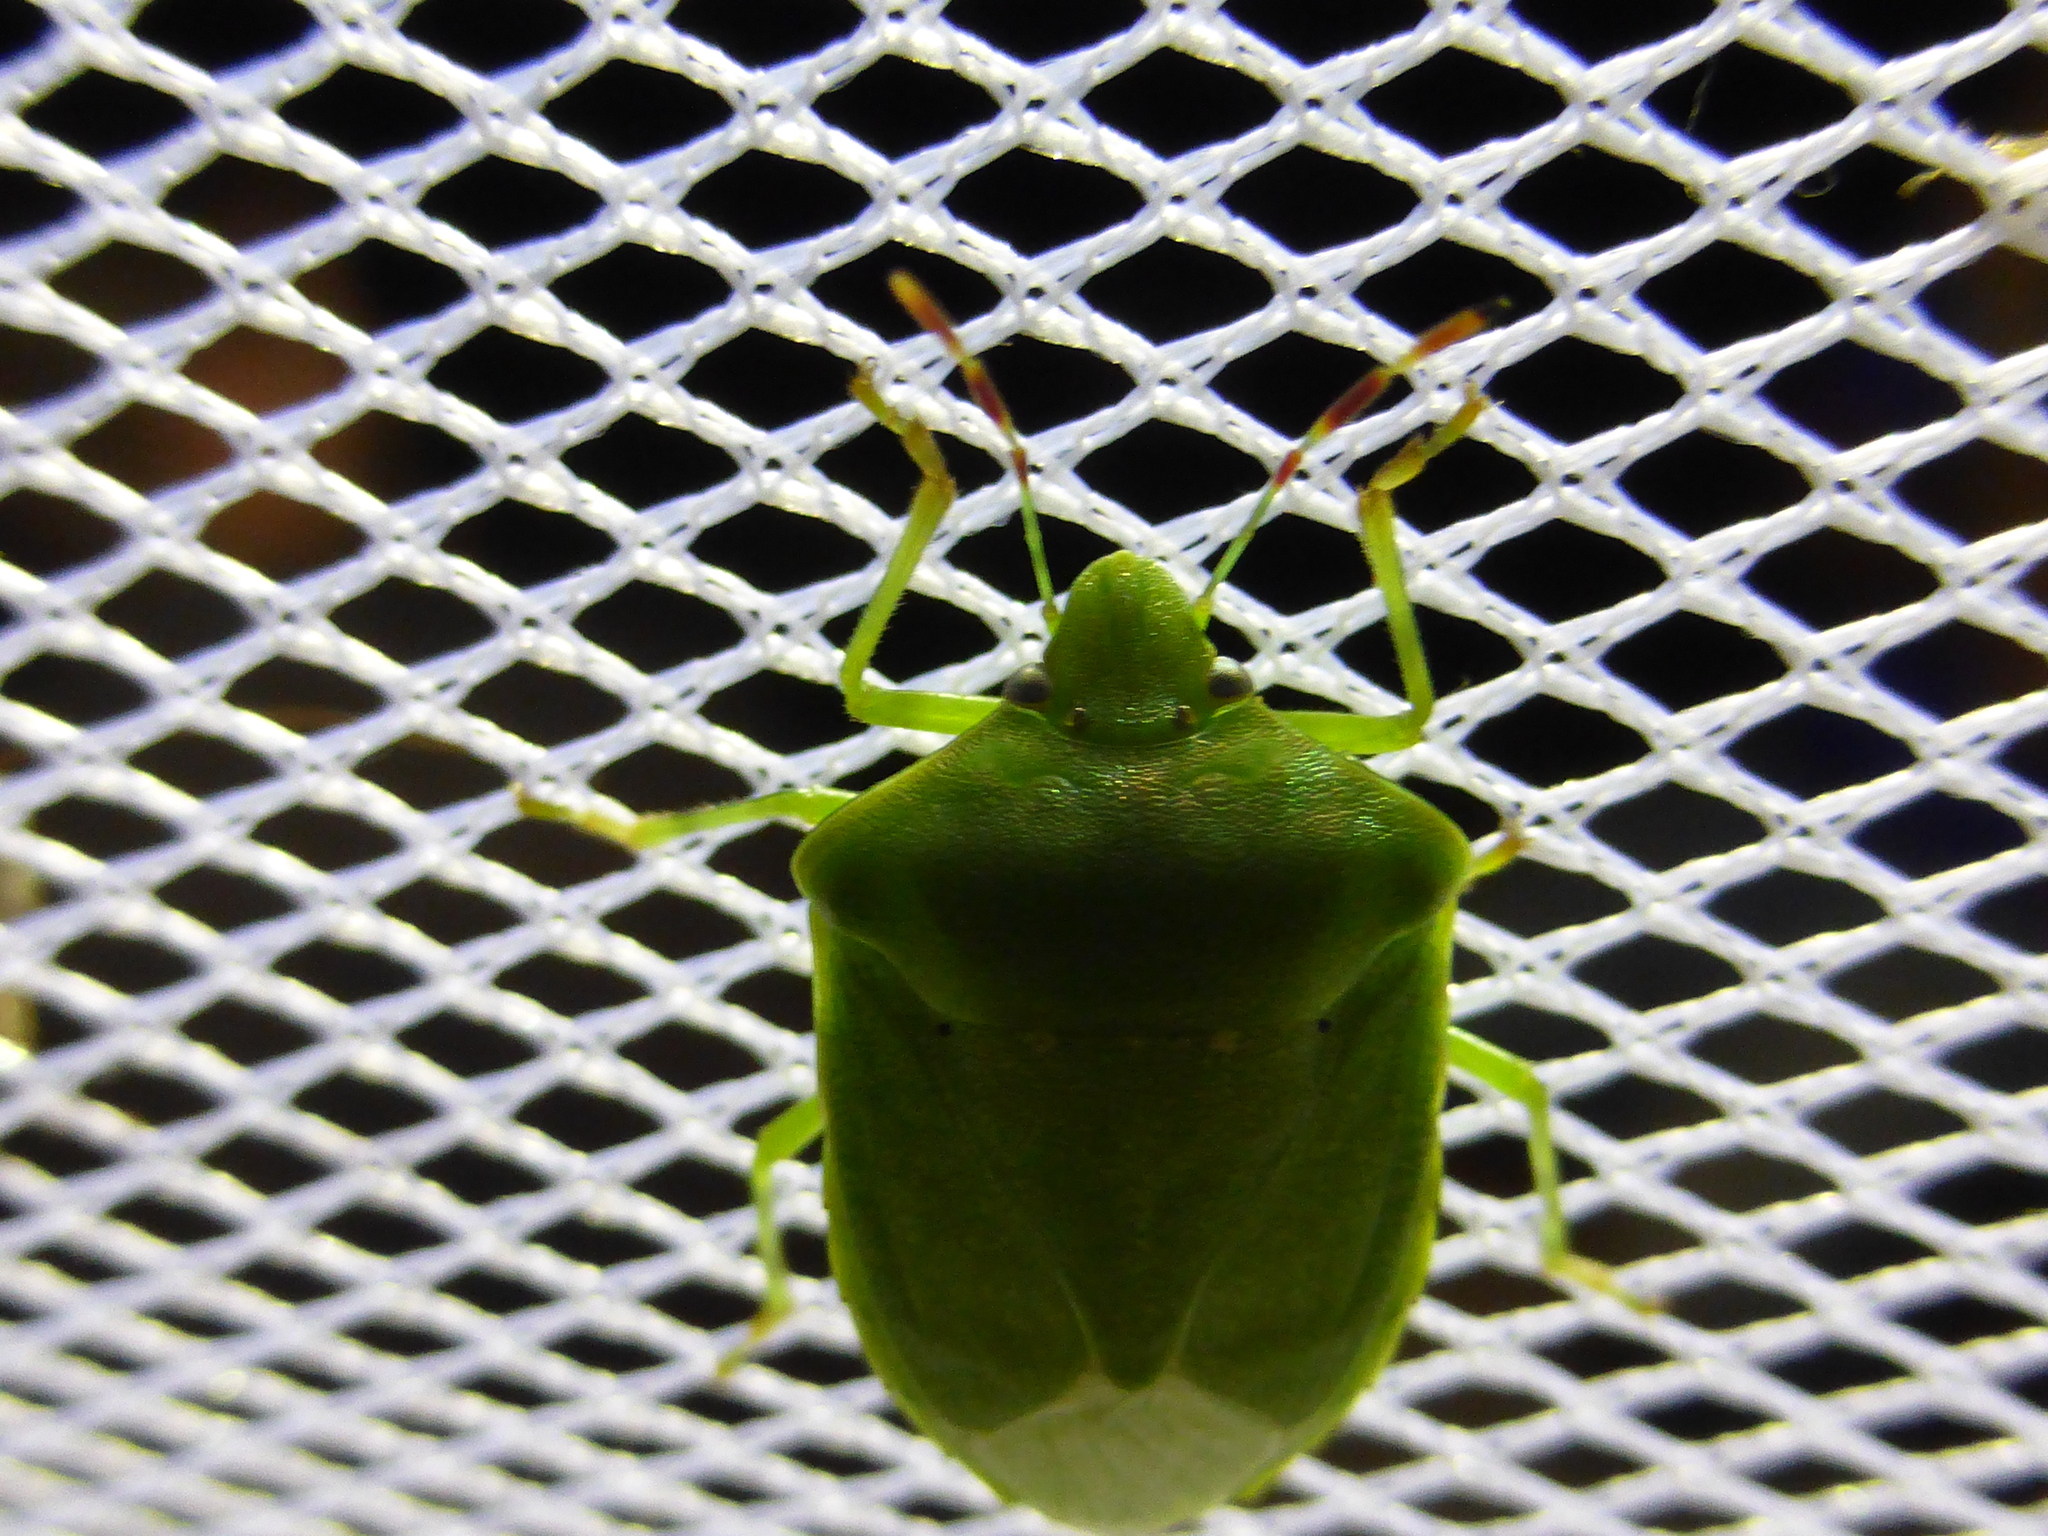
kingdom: Animalia
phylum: Arthropoda
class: Insecta
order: Hemiptera
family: Pentatomidae
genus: Nezara
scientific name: Nezara viridula
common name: Southern green stink bug
